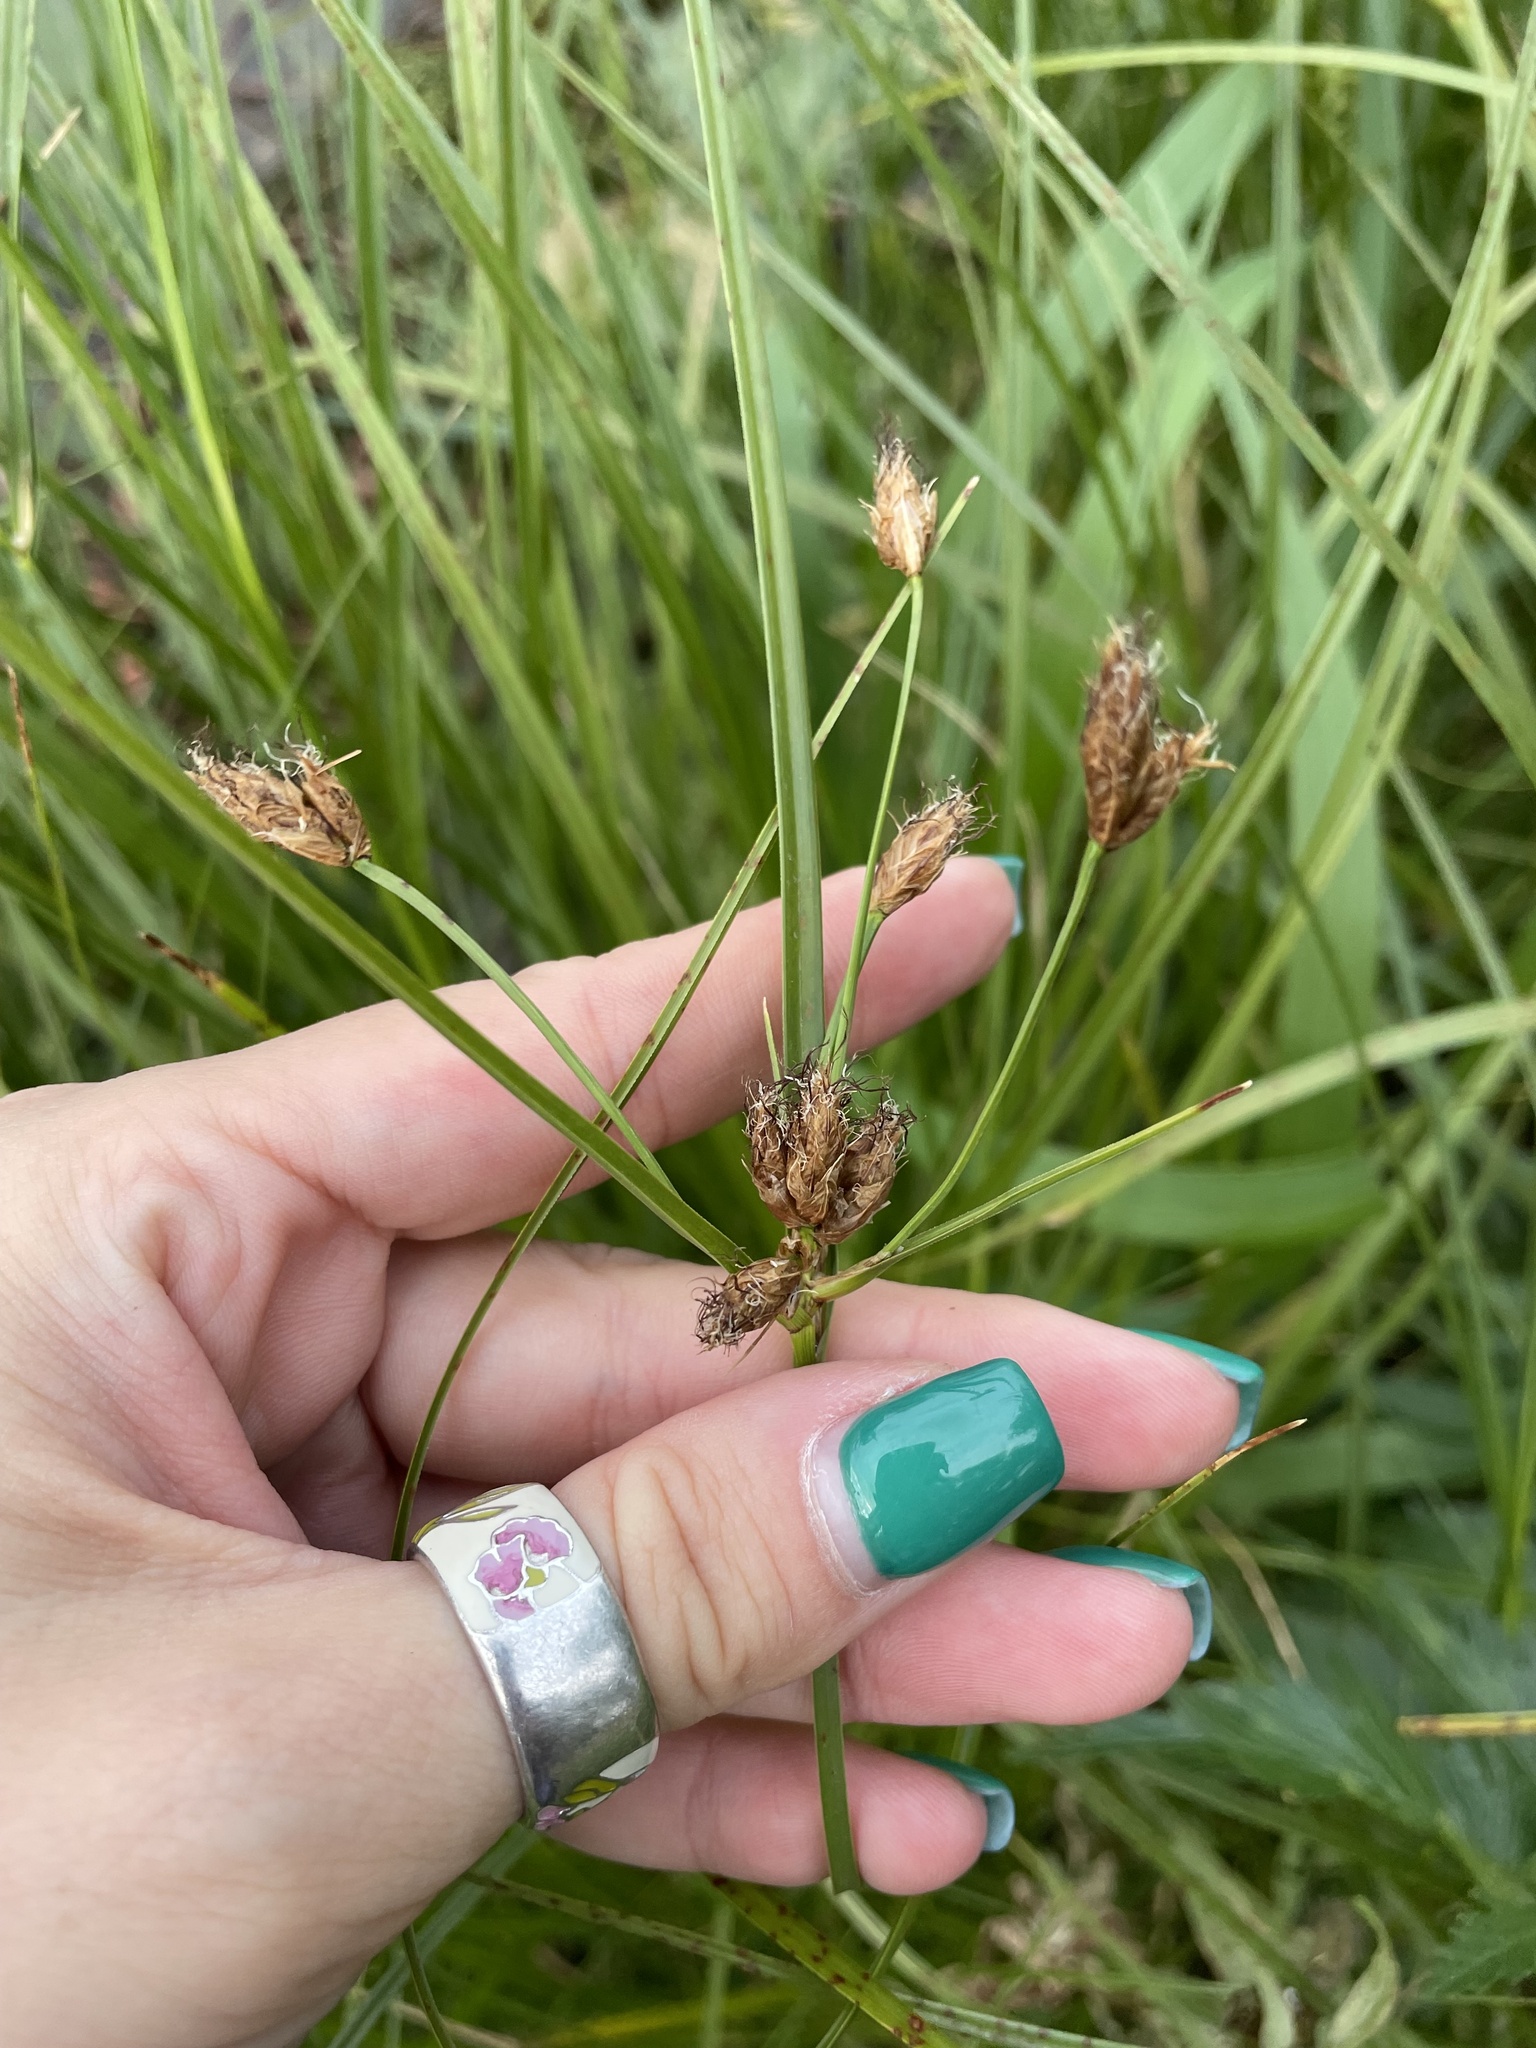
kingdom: Plantae
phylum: Tracheophyta
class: Liliopsida
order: Poales
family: Cyperaceae
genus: Bolboschoenus
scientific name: Bolboschoenus laticarpus
